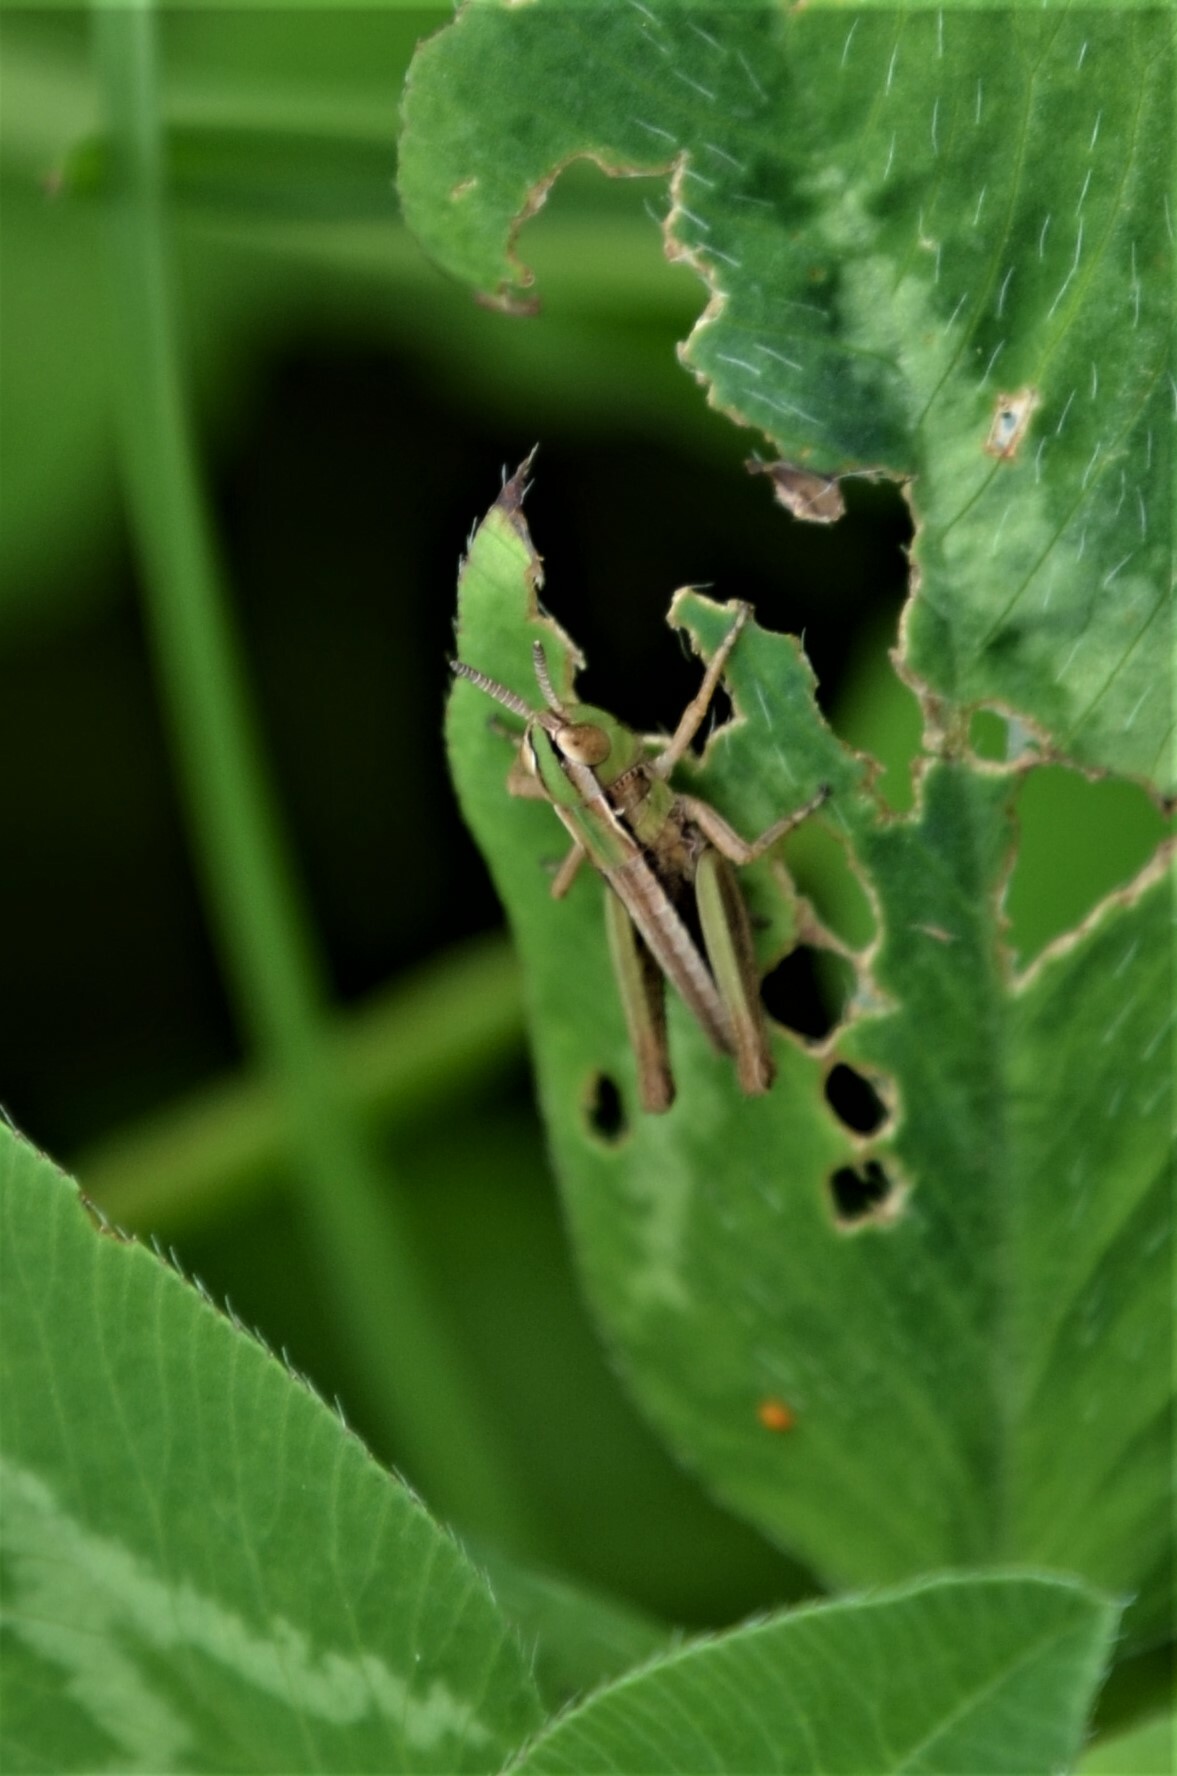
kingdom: Animalia
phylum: Arthropoda
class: Insecta
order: Orthoptera
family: Acrididae
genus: Stenobothrus
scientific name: Stenobothrus stigmaticus
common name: Lesser mottled grasshopper
